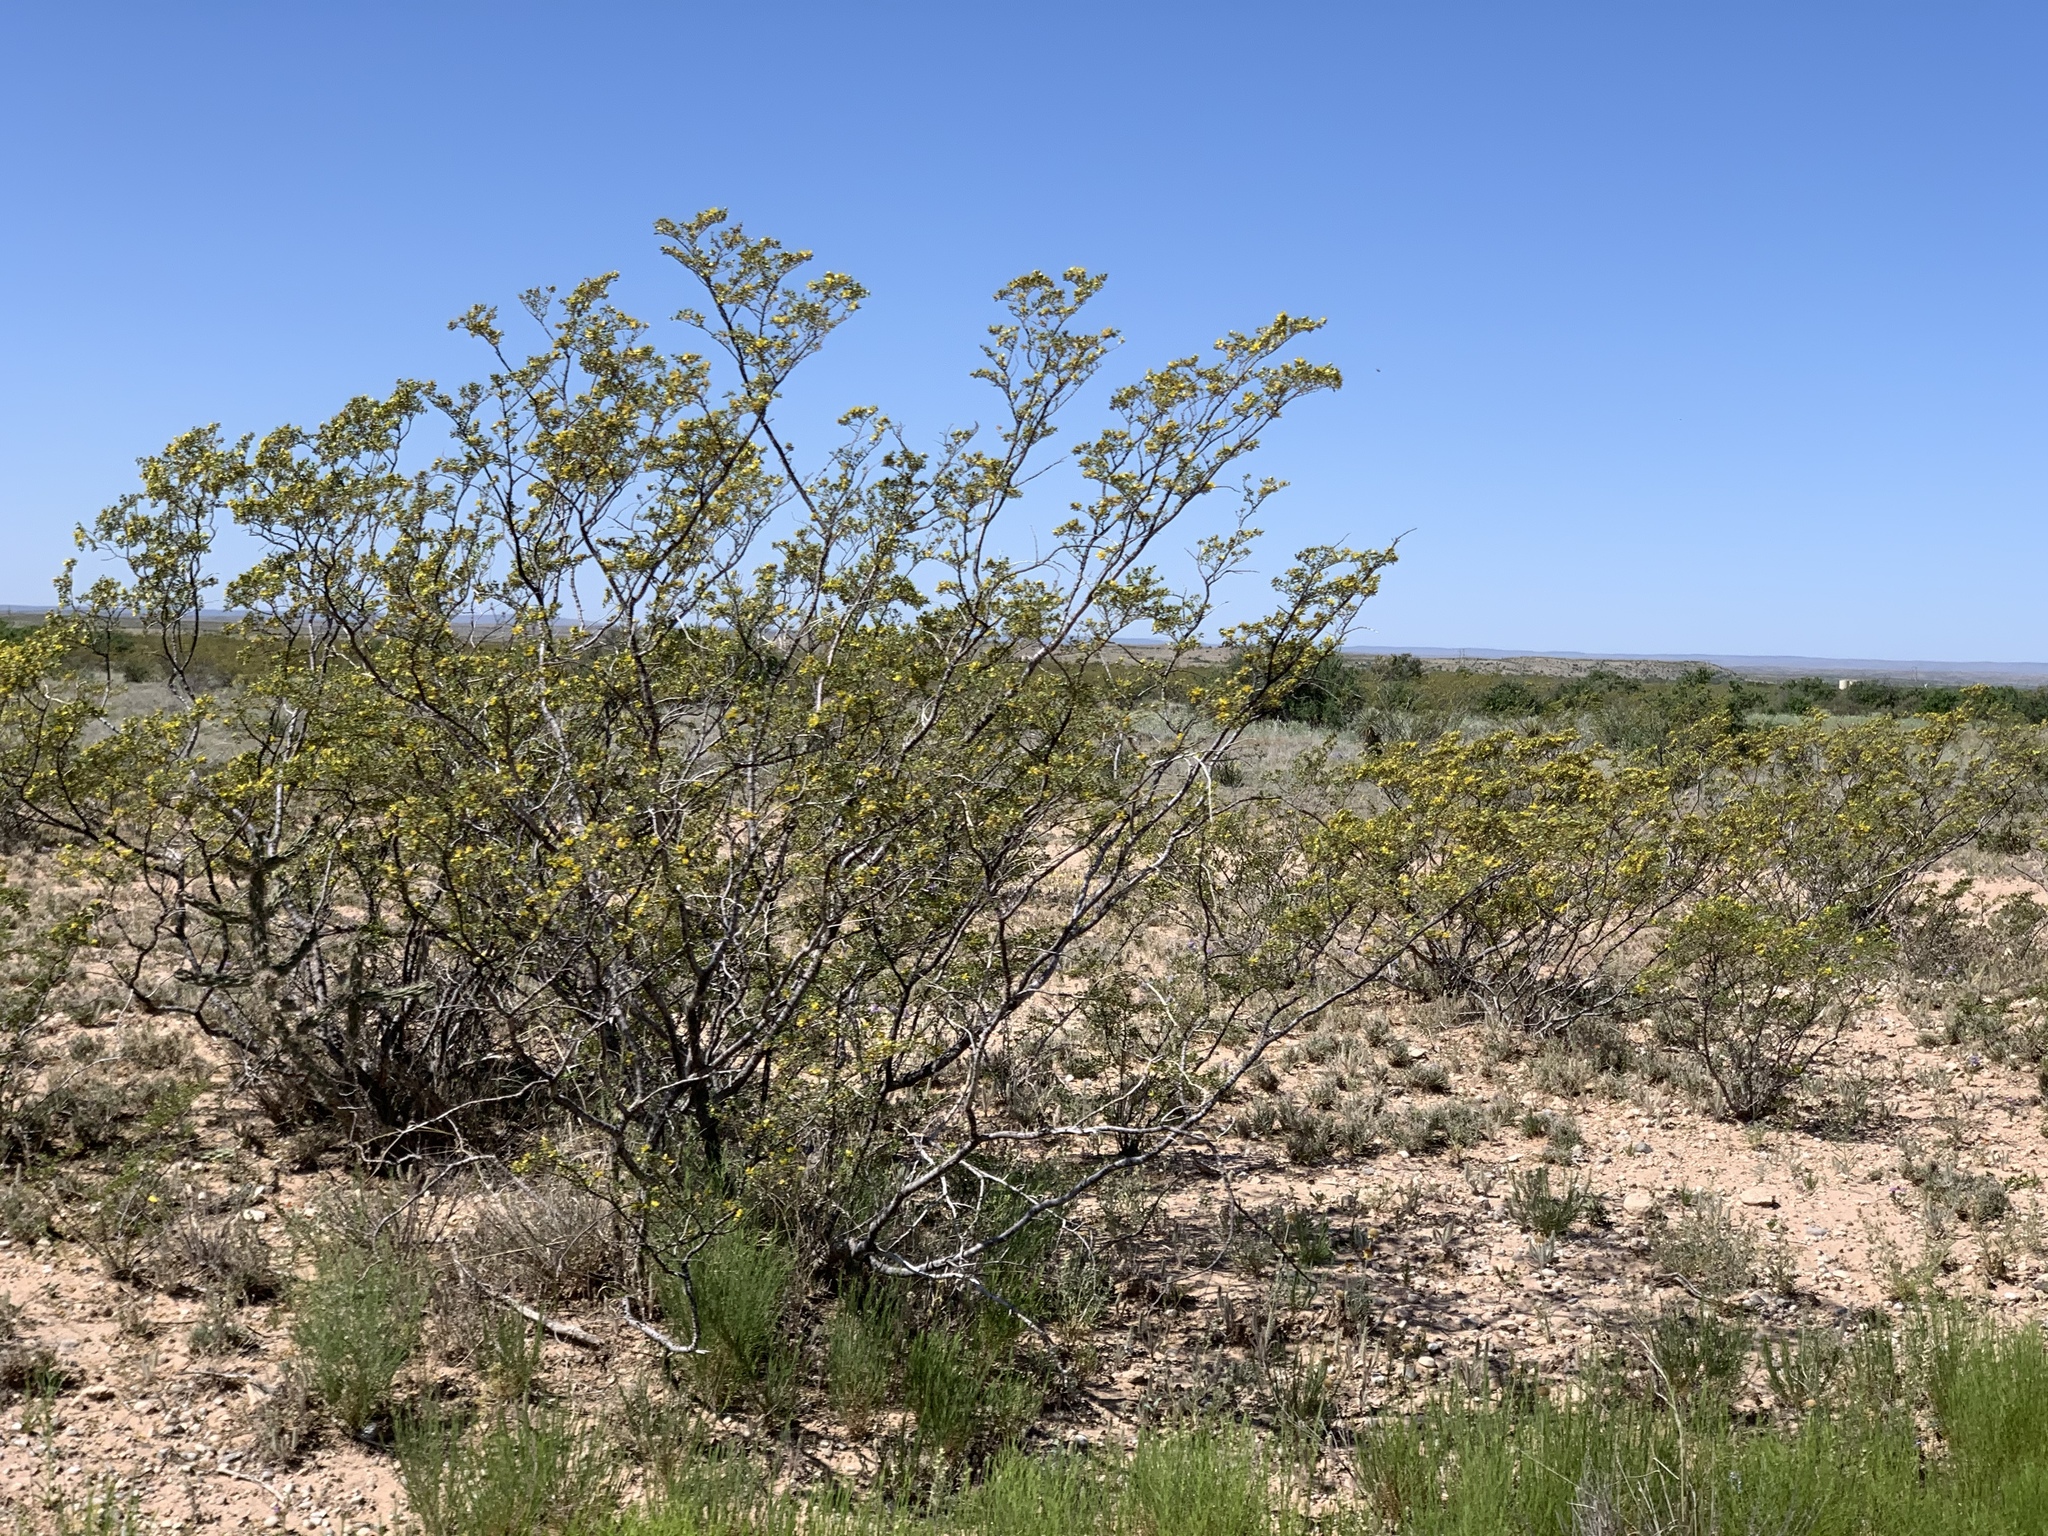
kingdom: Plantae
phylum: Tracheophyta
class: Magnoliopsida
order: Zygophyllales
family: Zygophyllaceae
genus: Larrea
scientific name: Larrea tridentata
